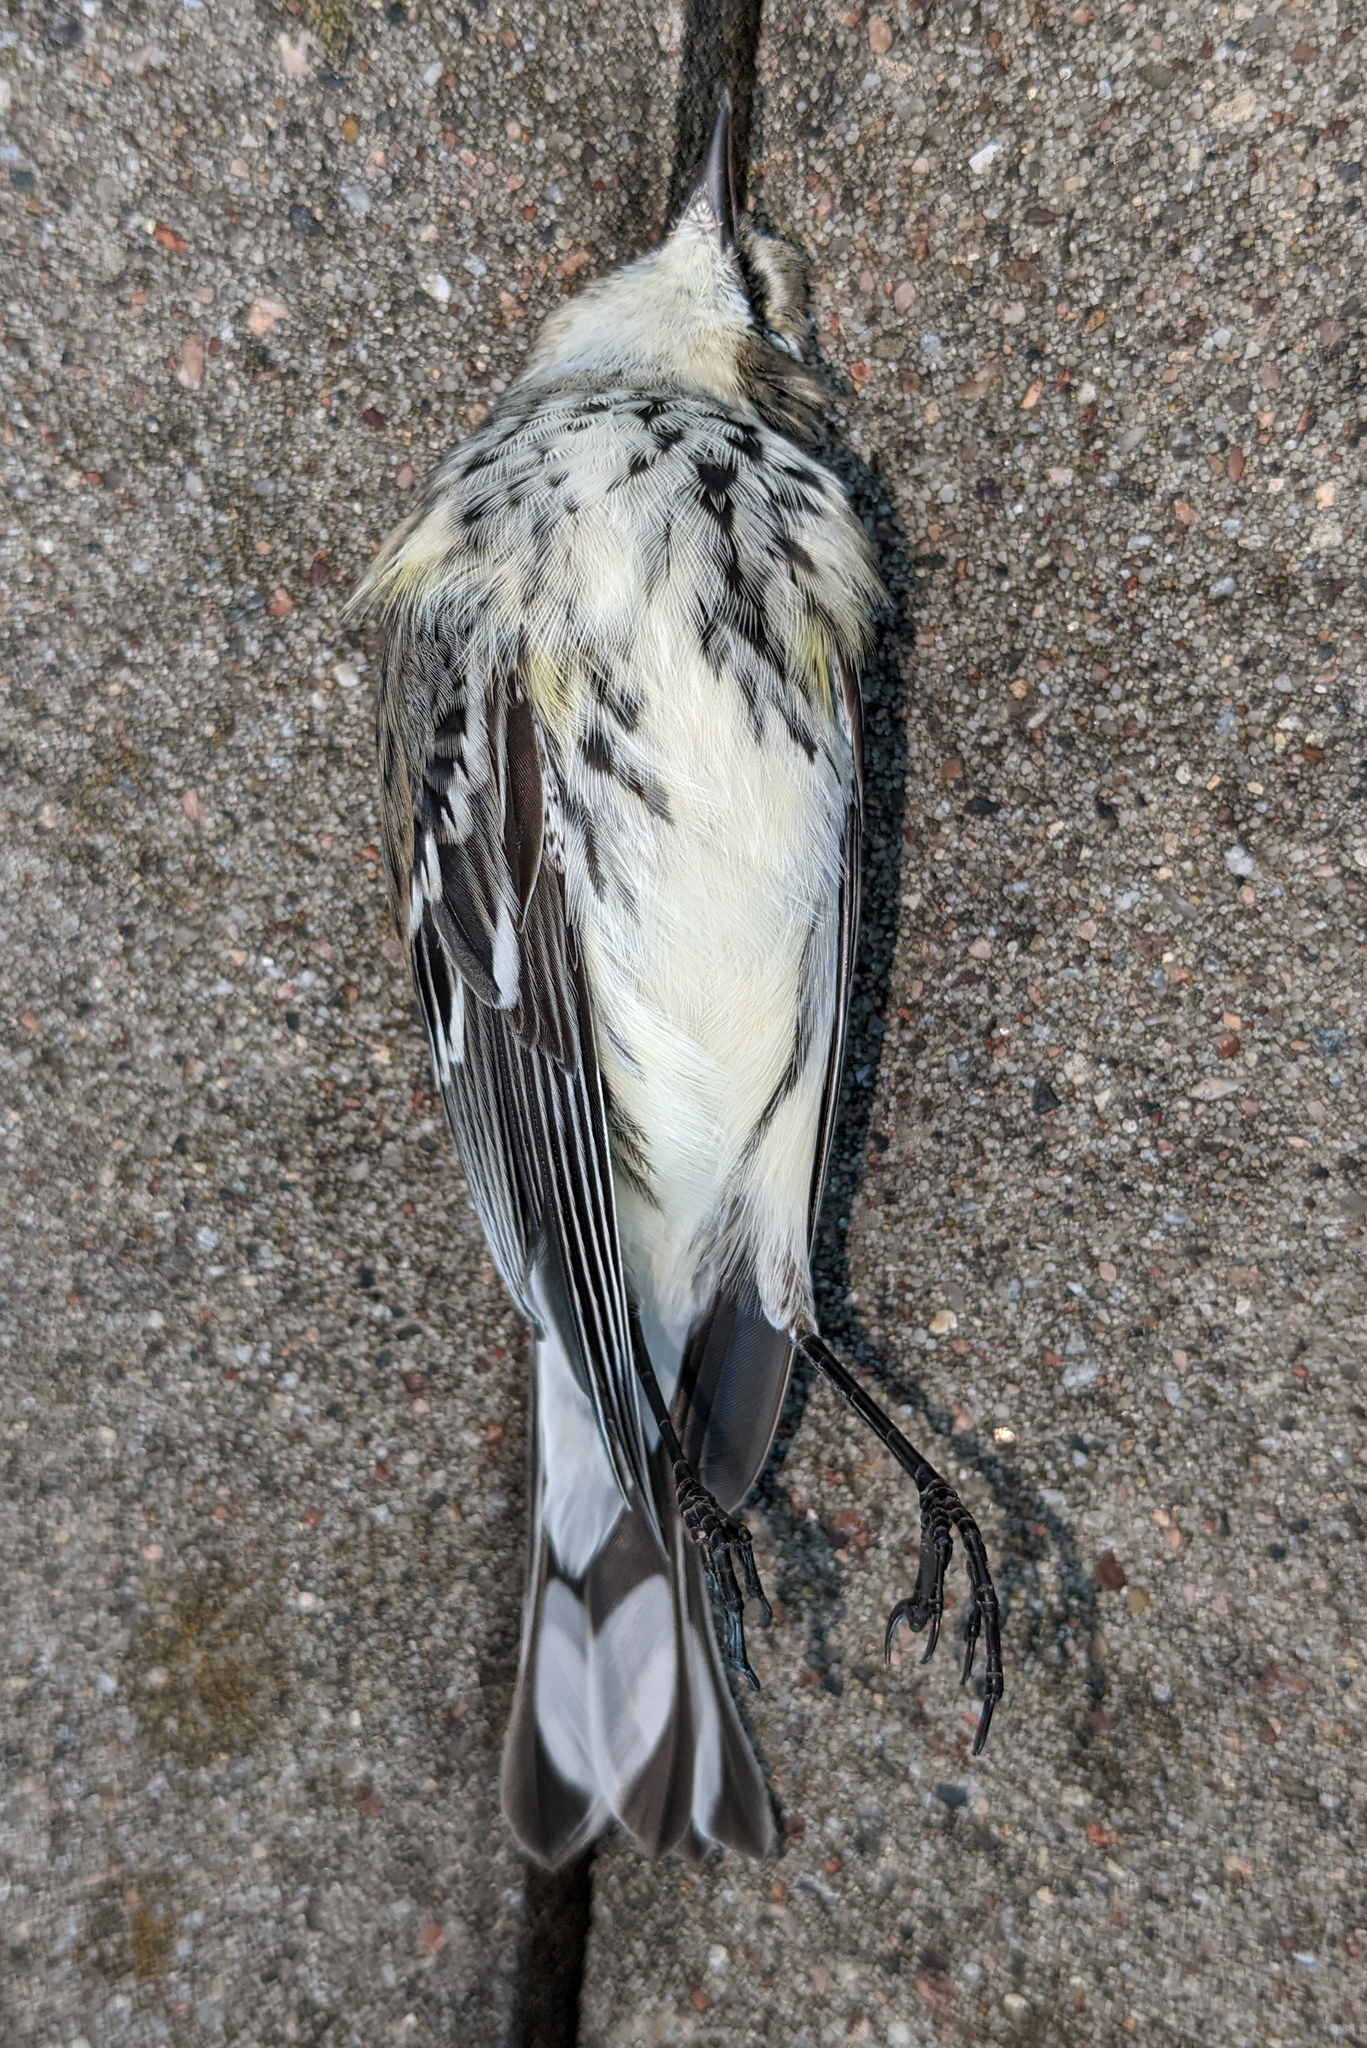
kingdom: Animalia
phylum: Chordata
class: Aves
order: Passeriformes
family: Parulidae
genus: Setophaga
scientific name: Setophaga coronata
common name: Myrtle warbler
